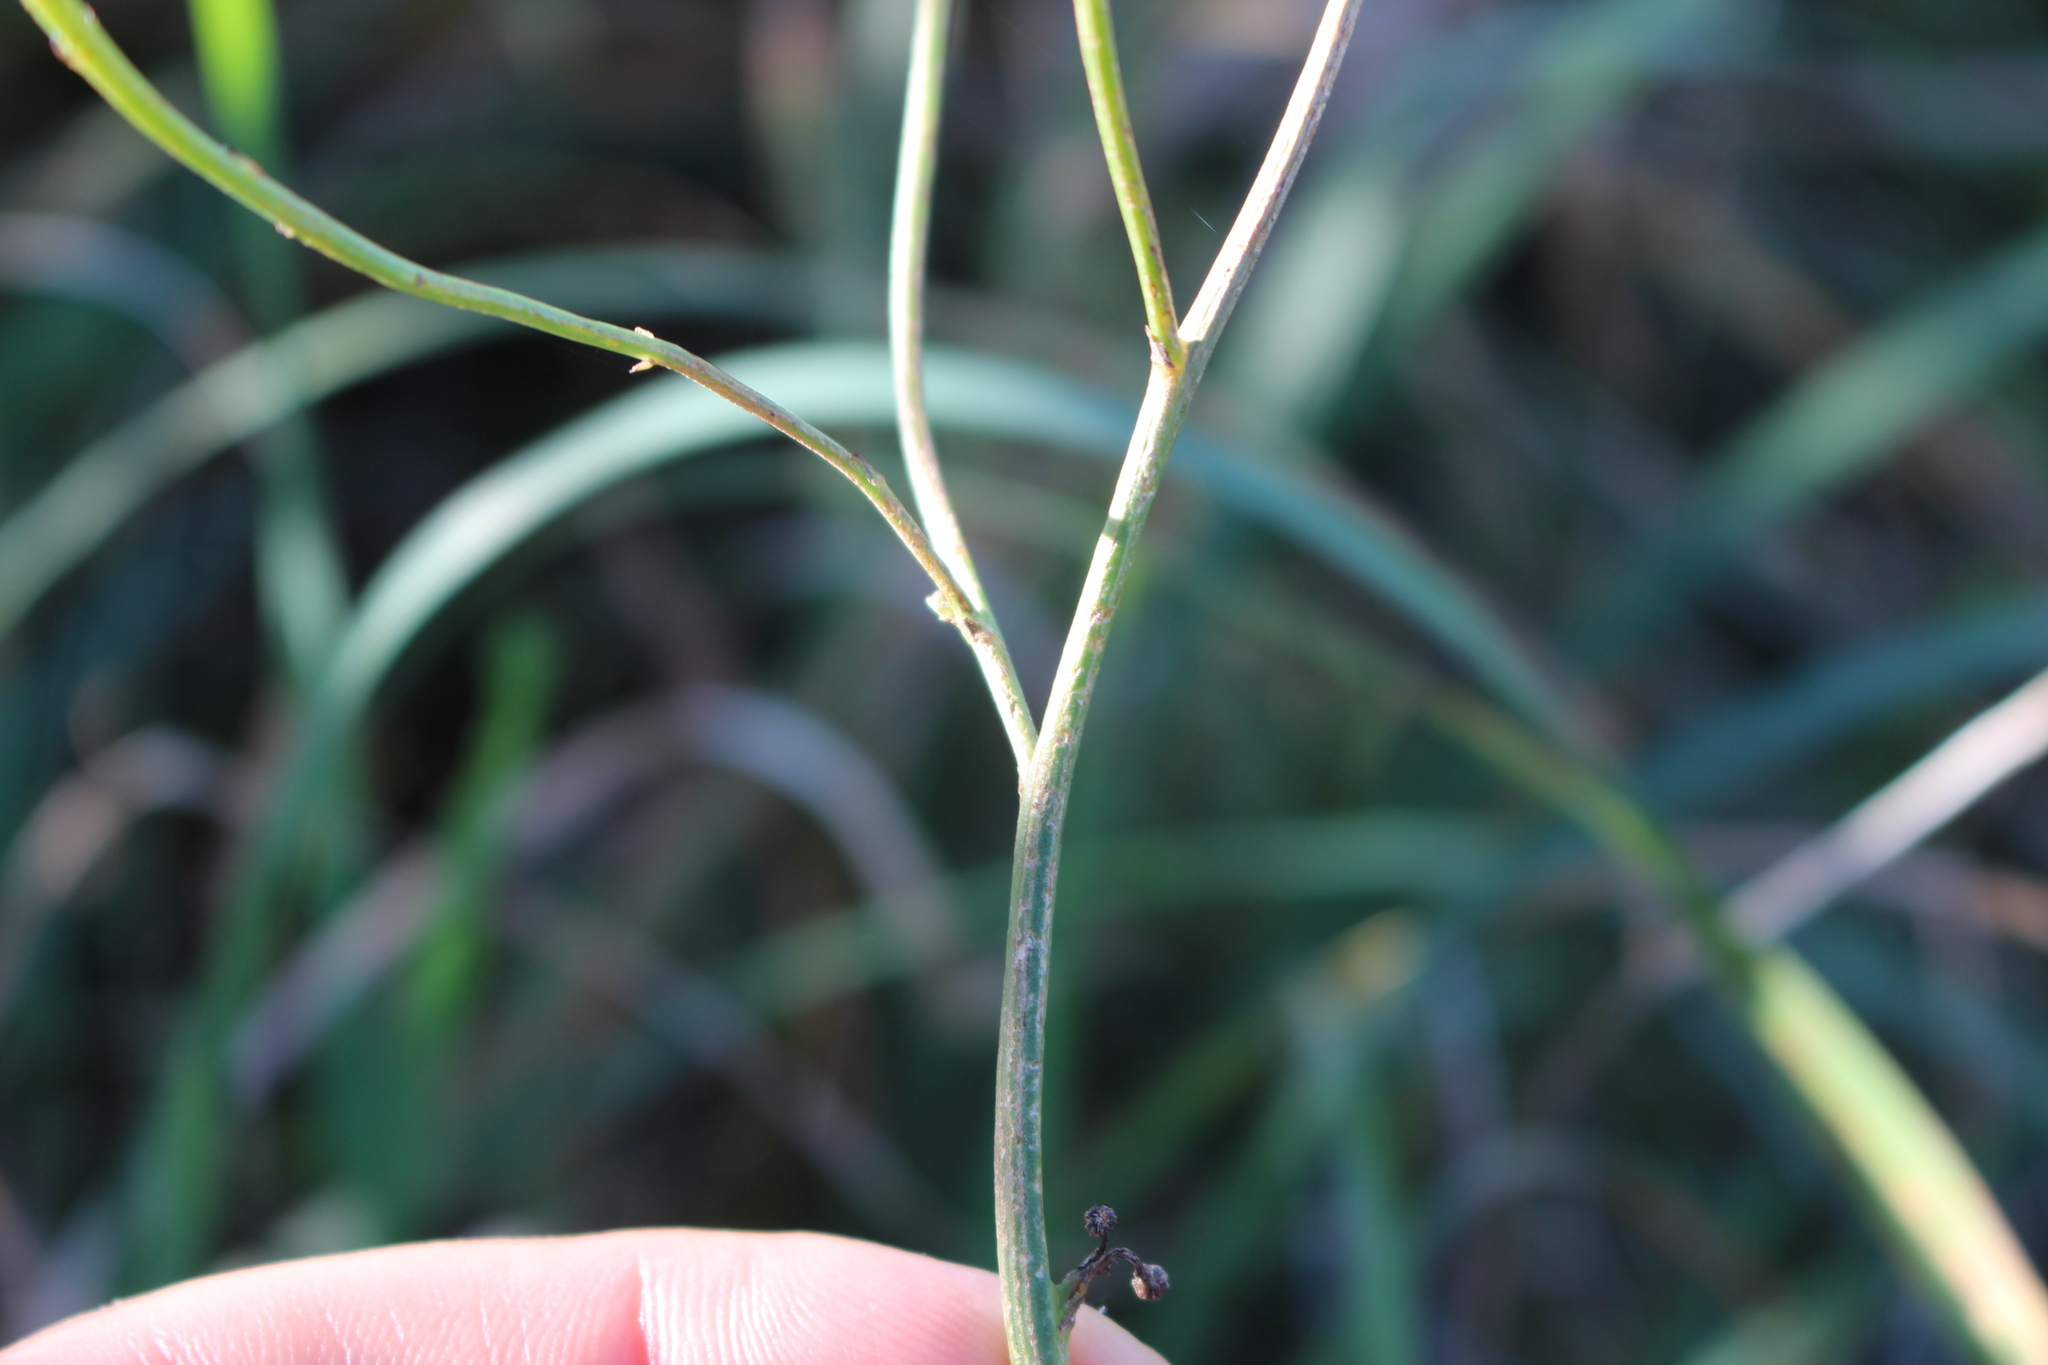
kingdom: Plantae
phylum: Tracheophyta
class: Magnoliopsida
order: Asterales
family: Asteraceae
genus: Hypochaeris
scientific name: Hypochaeris radicata
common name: Flatweed
